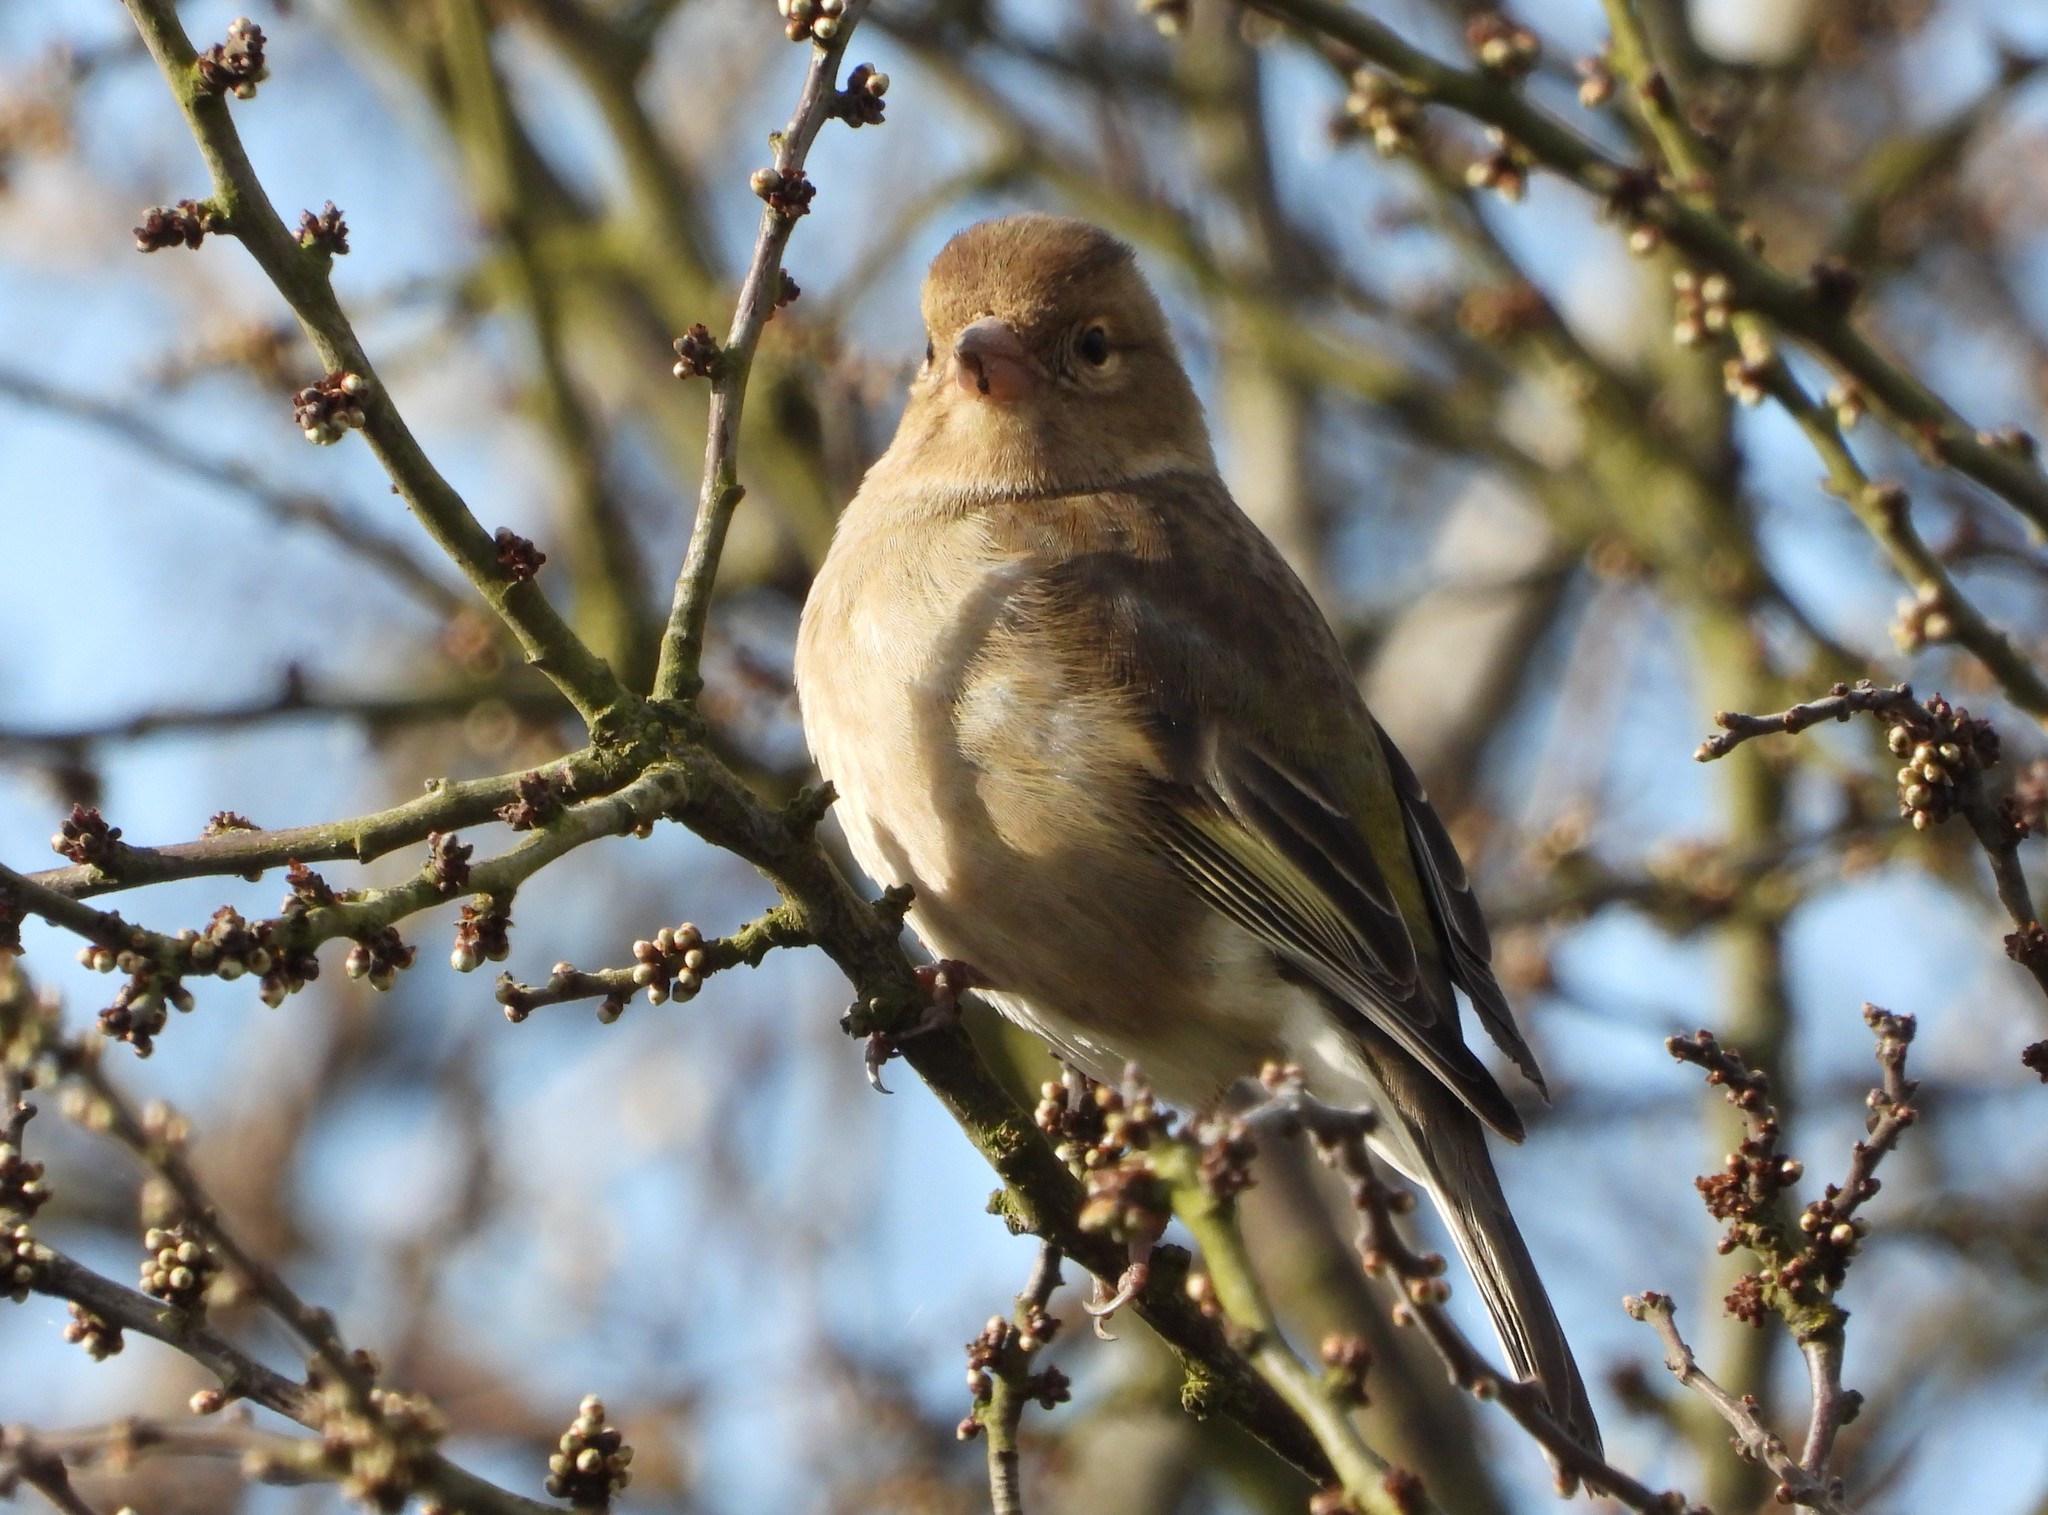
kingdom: Animalia
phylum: Chordata
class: Aves
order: Passeriformes
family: Fringillidae
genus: Fringilla
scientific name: Fringilla coelebs
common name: Common chaffinch
